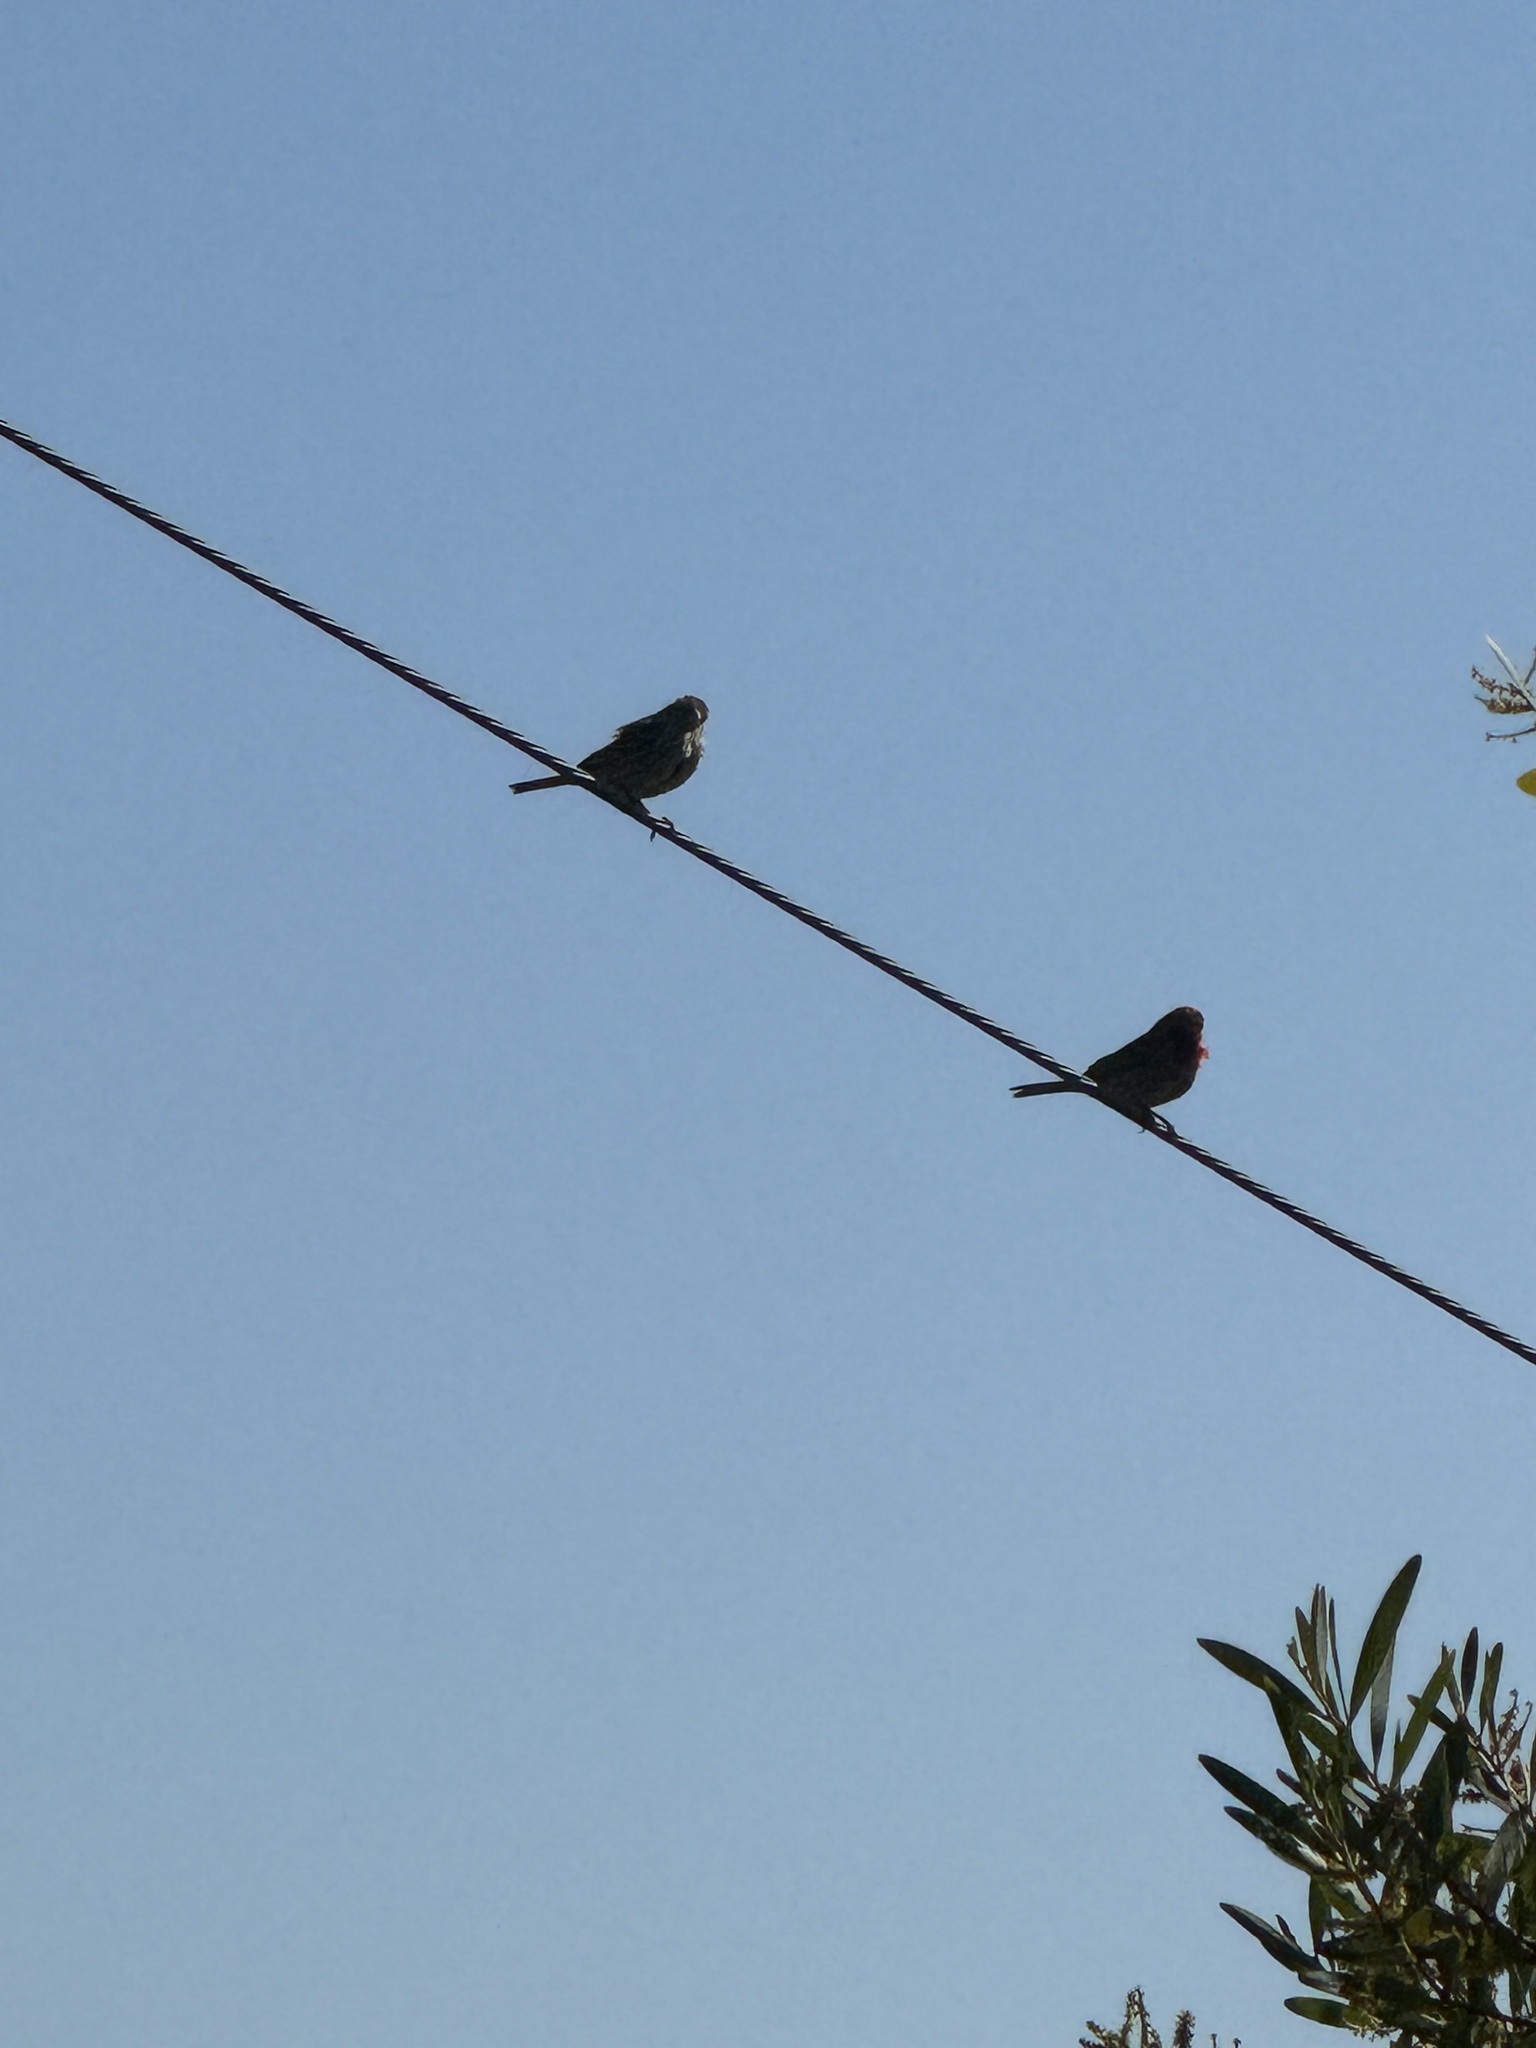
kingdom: Animalia
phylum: Chordata
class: Aves
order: Passeriformes
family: Fringillidae
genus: Haemorhous
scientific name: Haemorhous mexicanus
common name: House finch
